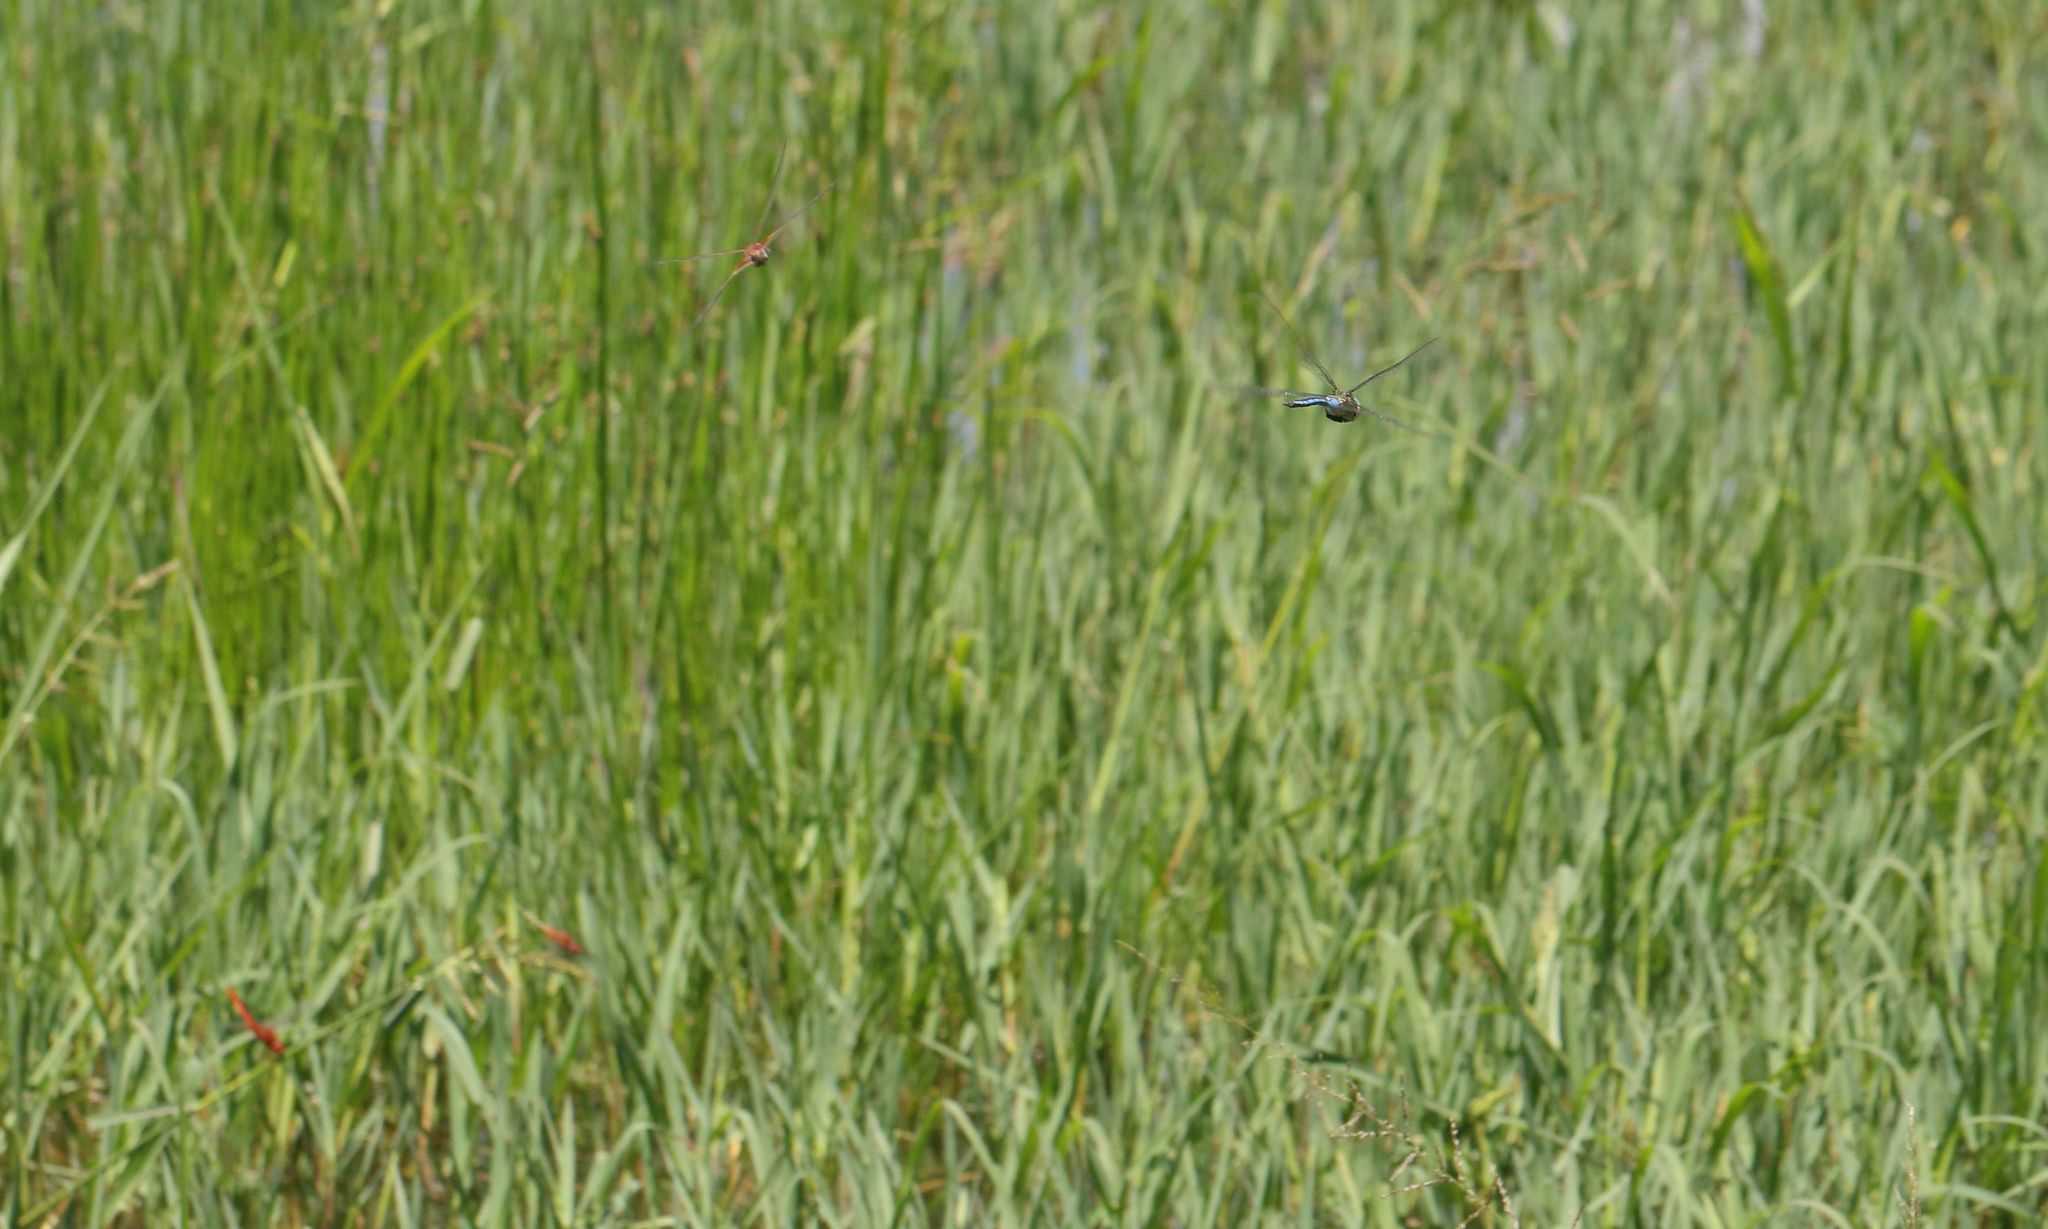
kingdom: Animalia
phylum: Arthropoda
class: Insecta
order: Odonata
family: Aeshnidae
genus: Anax
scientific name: Anax imperator
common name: Emperor dragonfly
